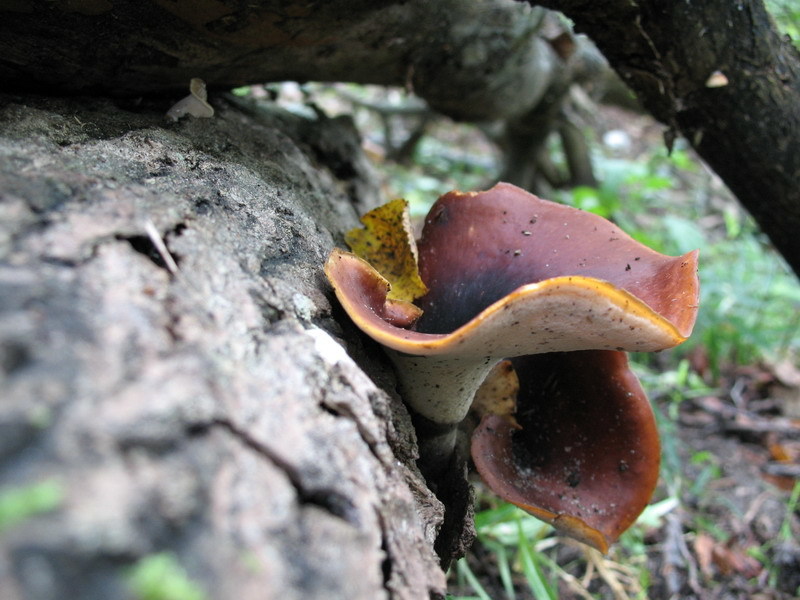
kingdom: Fungi
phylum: Basidiomycota
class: Agaricomycetes
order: Polyporales
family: Polyporaceae
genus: Picipes
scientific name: Picipes badius
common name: Bay polypore
